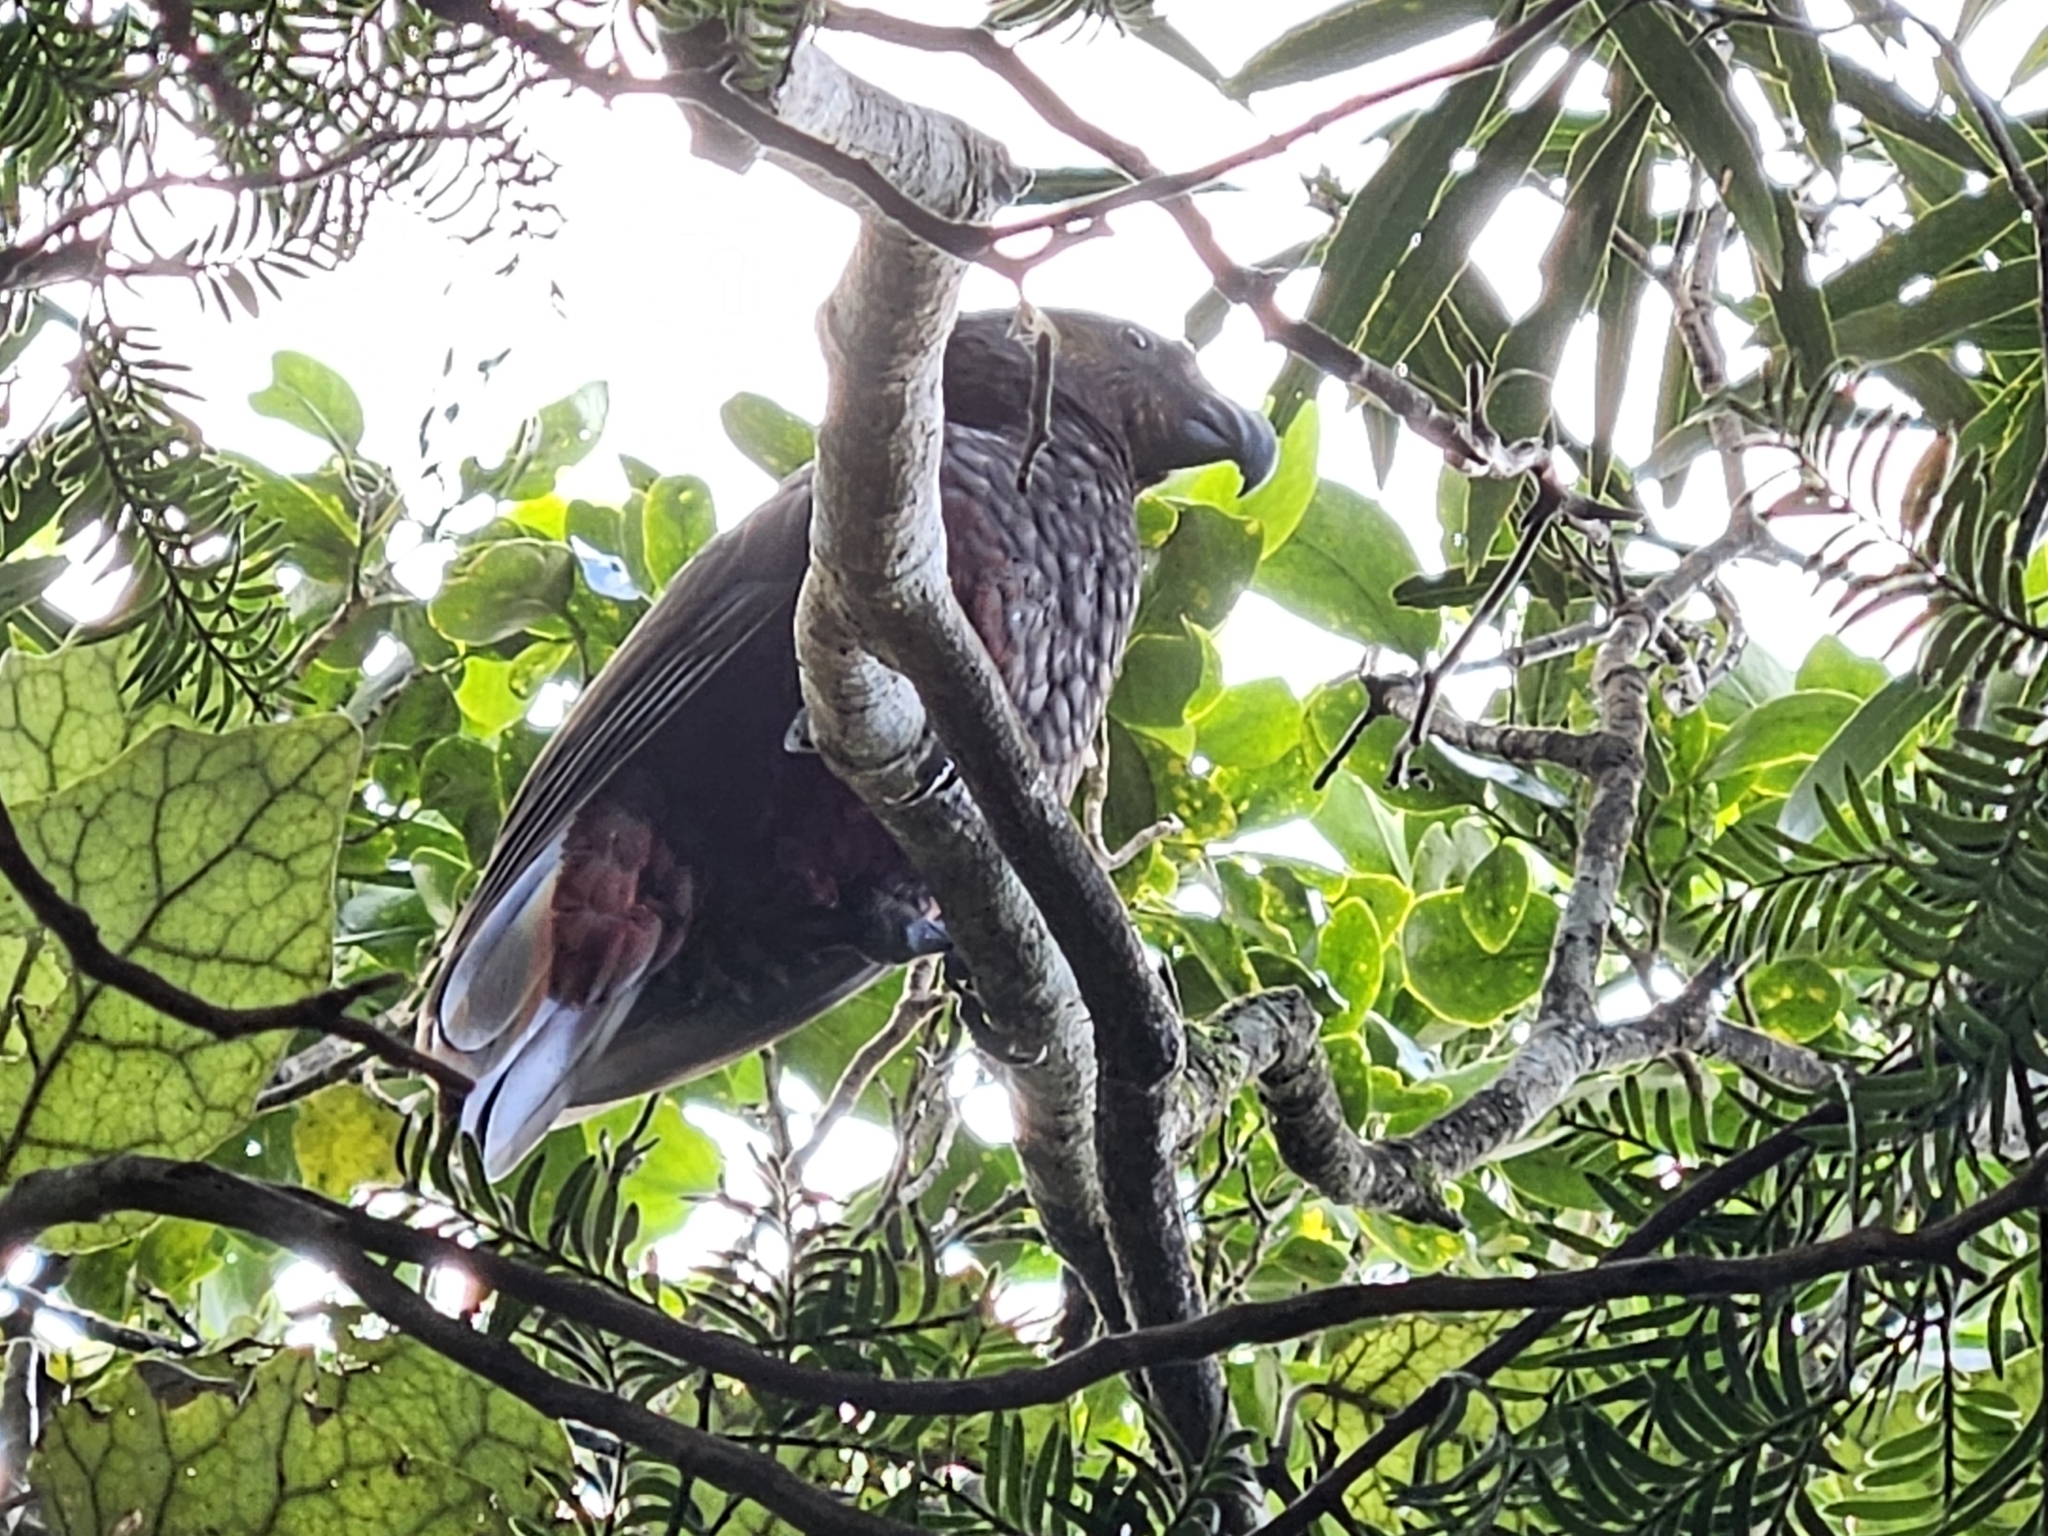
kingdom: Animalia
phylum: Chordata
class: Aves
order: Psittaciformes
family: Psittacidae
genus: Nestor
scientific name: Nestor meridionalis
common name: New zealand kaka
